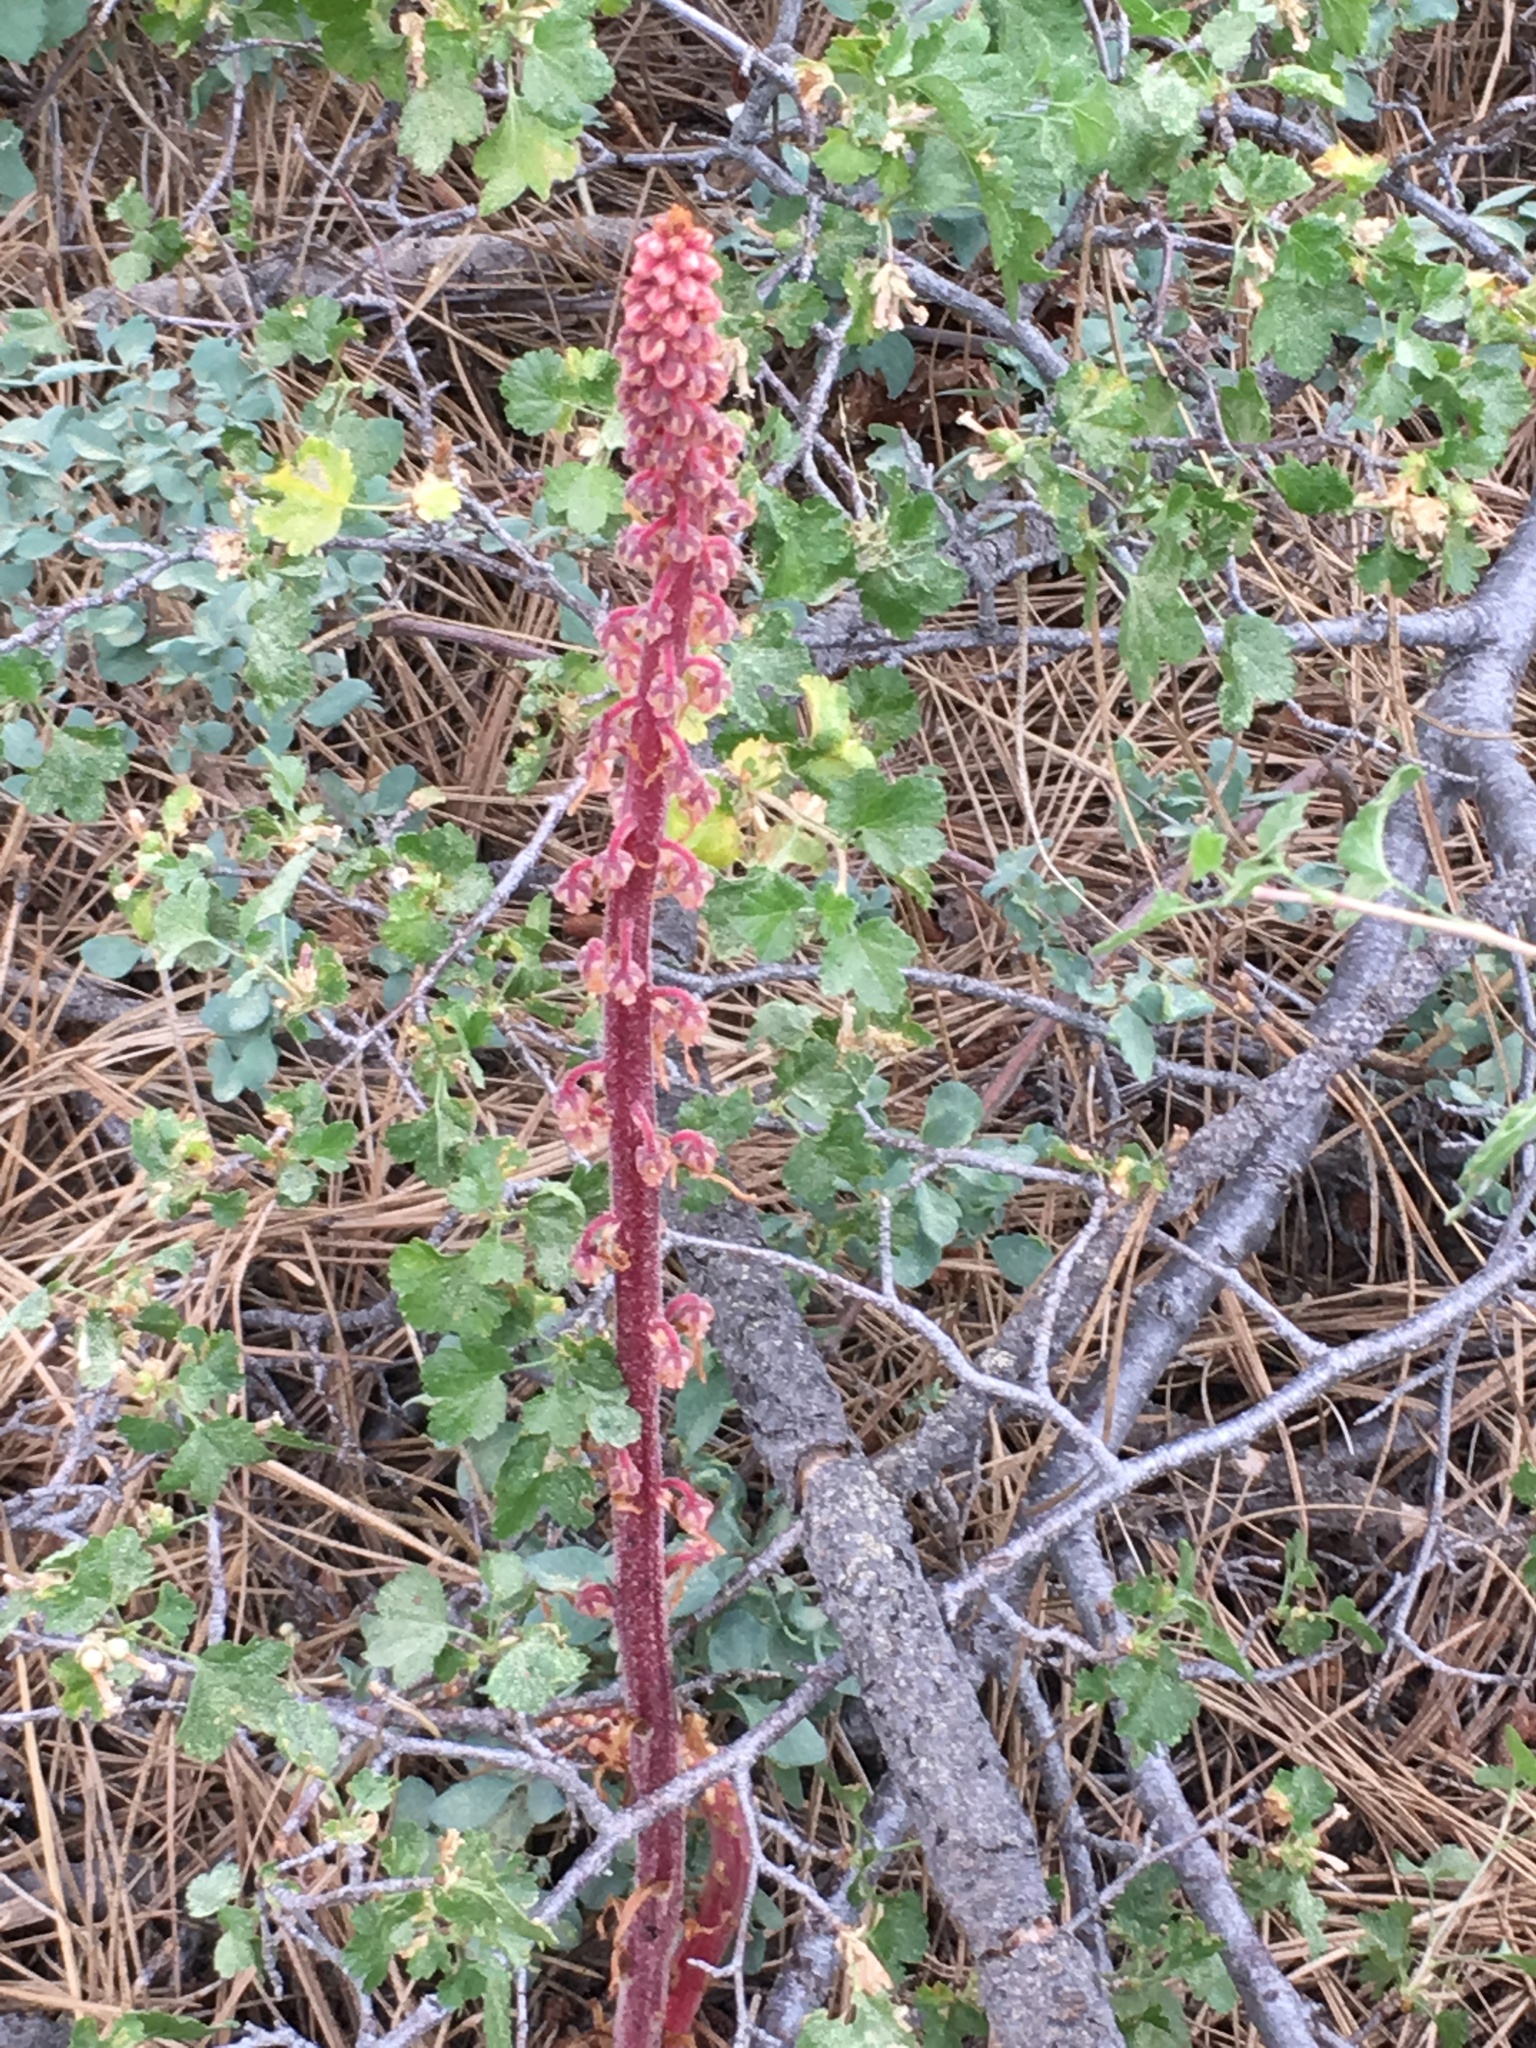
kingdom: Plantae
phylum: Tracheophyta
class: Magnoliopsida
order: Ericales
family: Ericaceae
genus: Pterospora
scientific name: Pterospora andromedea
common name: Giant bird's-nest
